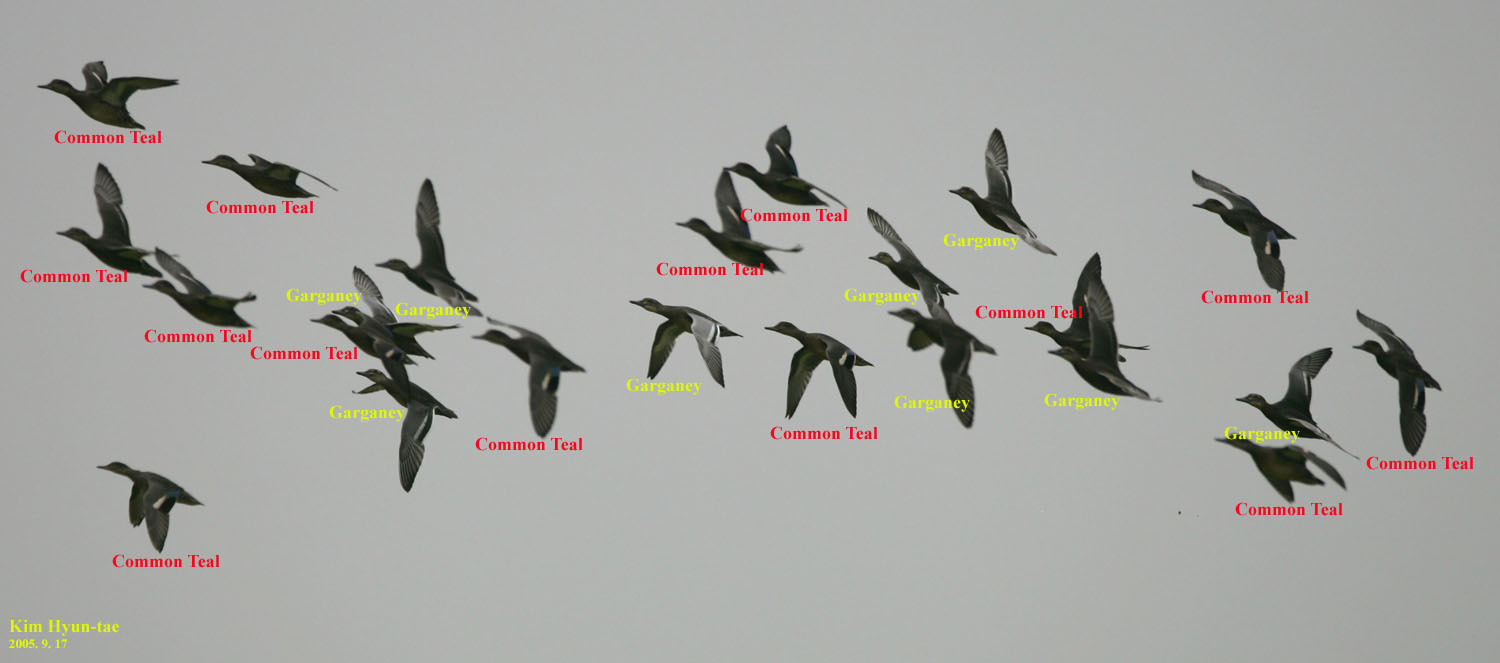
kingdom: Animalia
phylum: Chordata
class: Aves
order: Anseriformes
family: Anatidae
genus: Spatula
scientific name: Spatula querquedula
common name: Garganey
